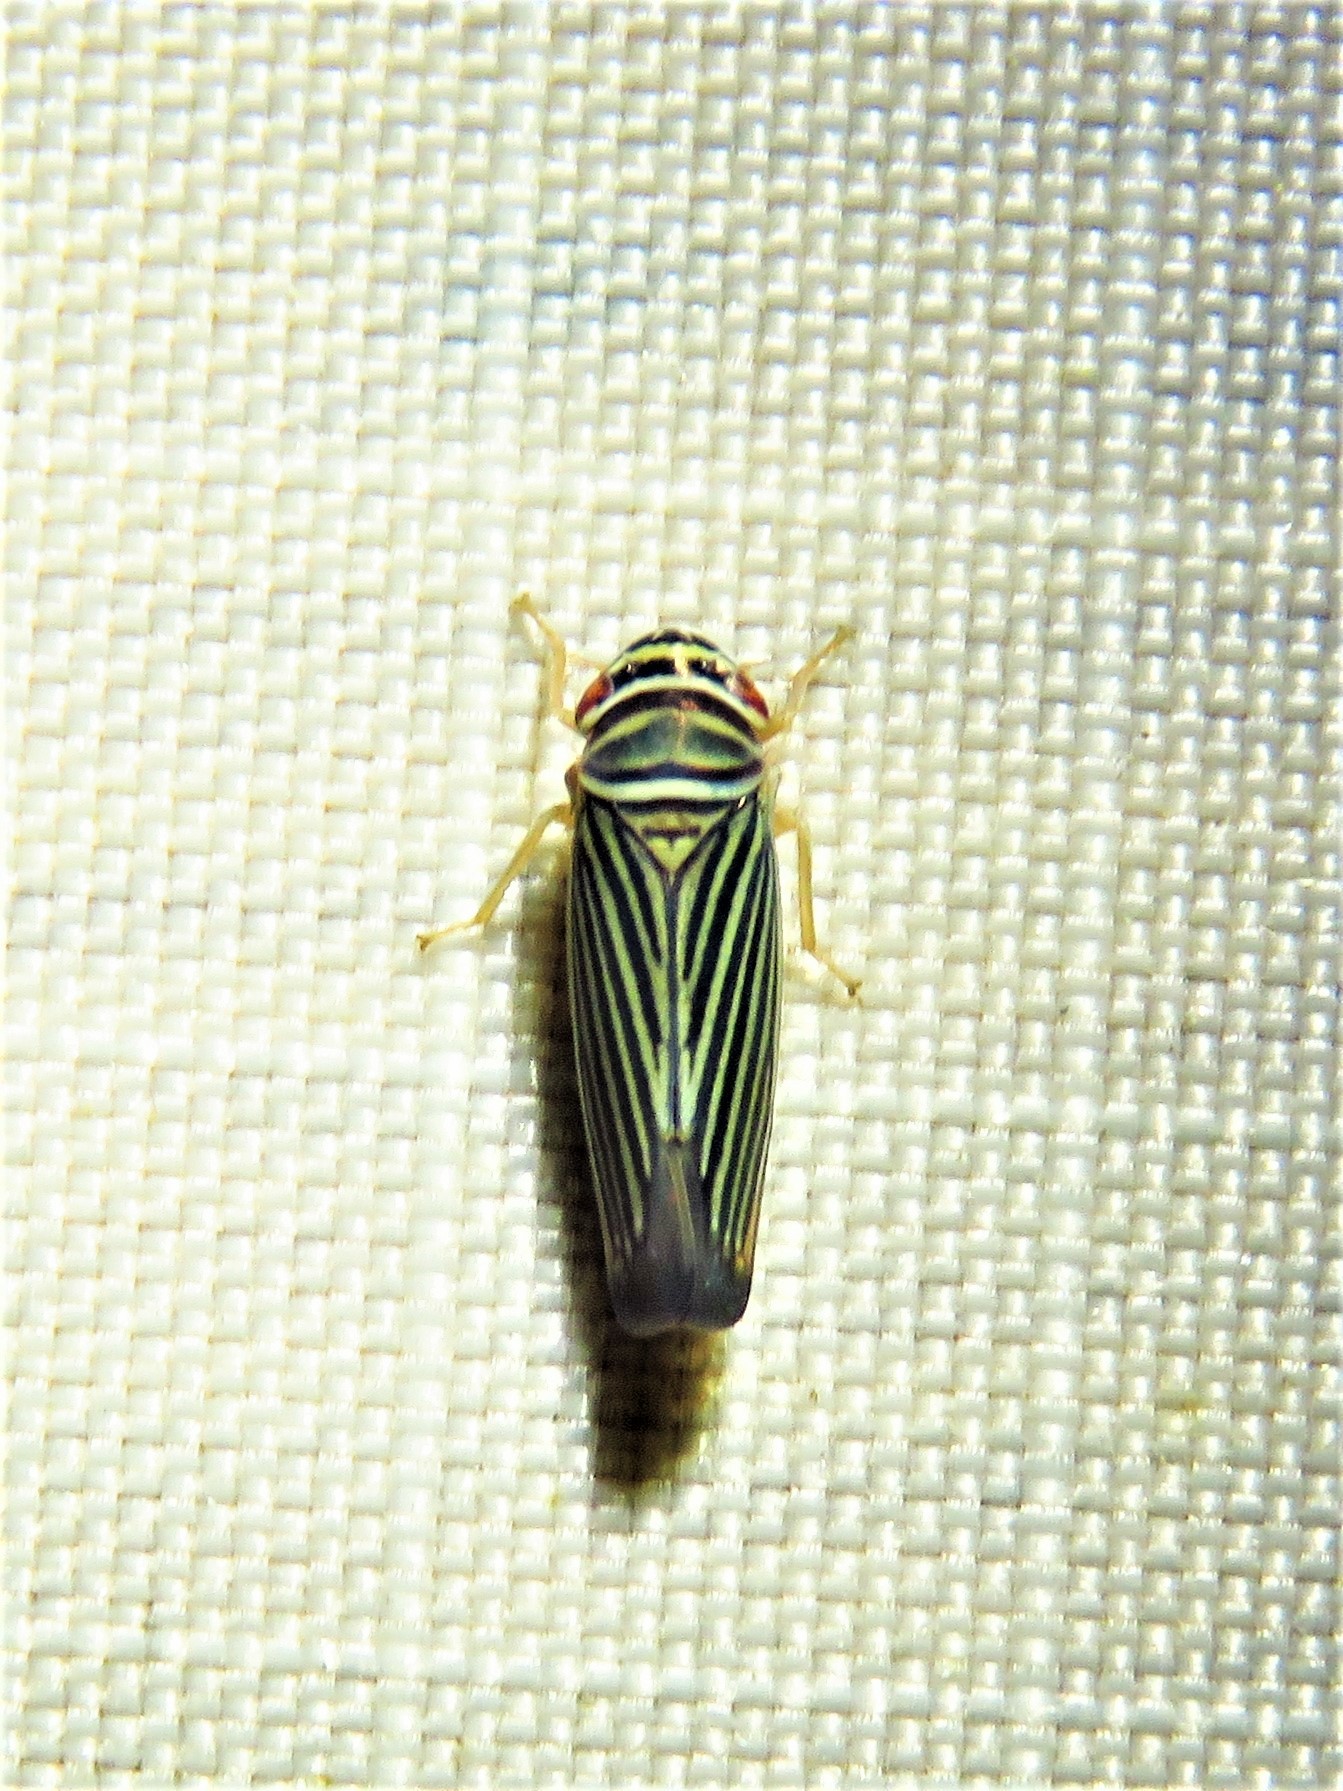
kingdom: Animalia
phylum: Arthropoda
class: Insecta
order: Hemiptera
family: Cicadellidae
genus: Tylozygus
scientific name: Tylozygus bifidus
